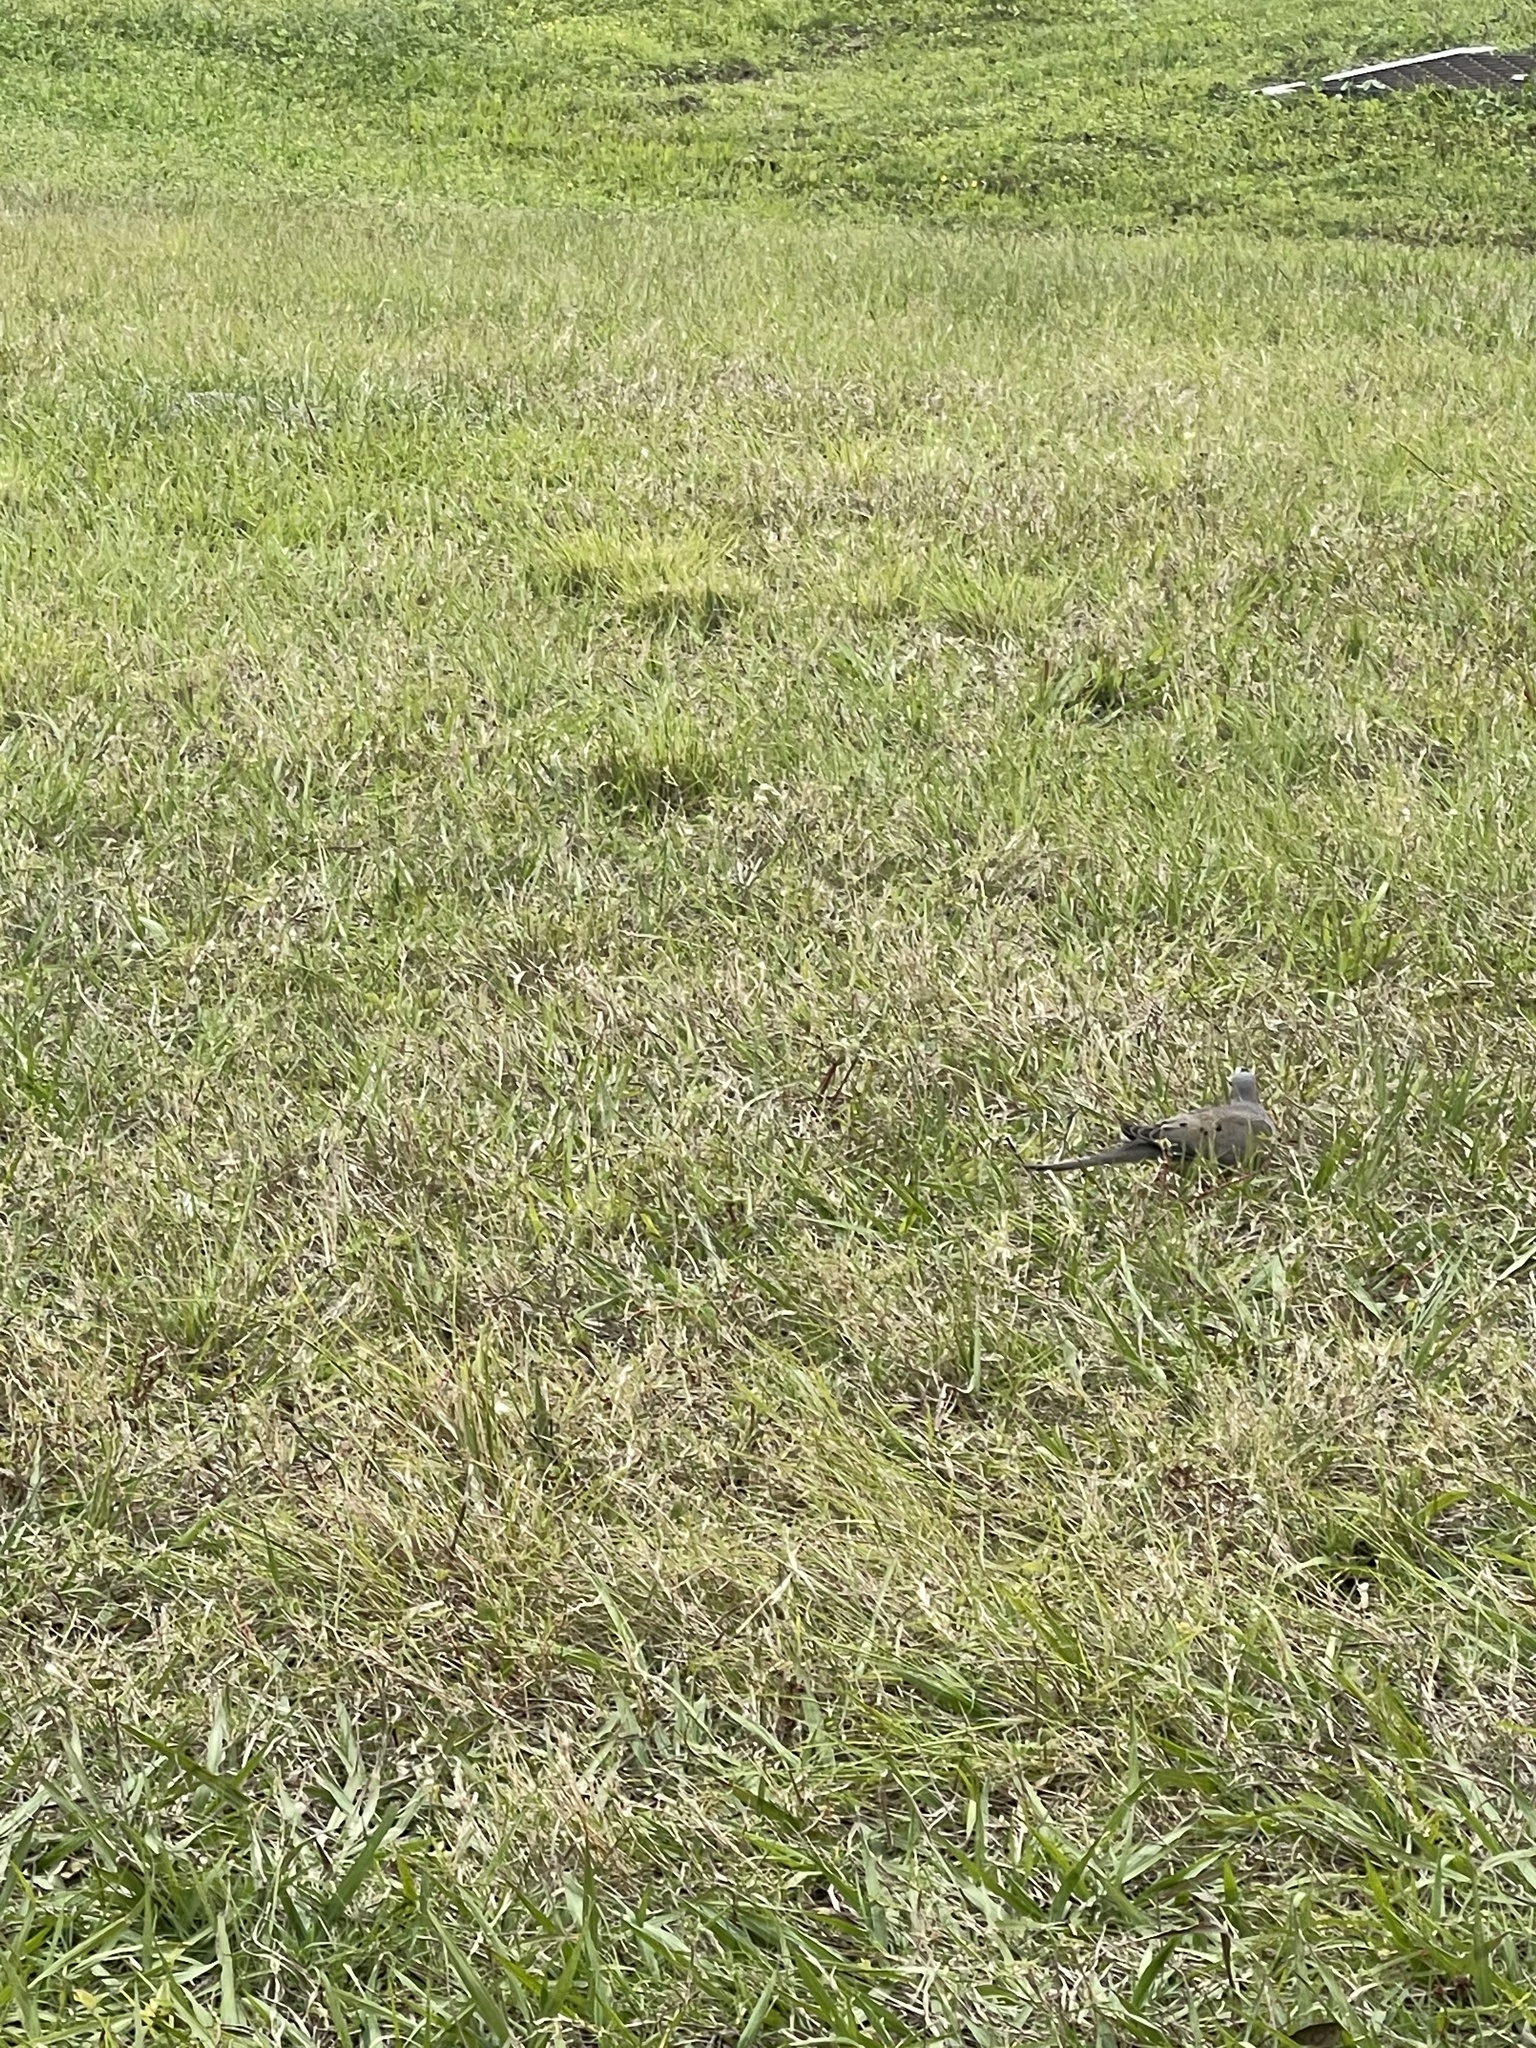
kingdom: Animalia
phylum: Chordata
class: Aves
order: Columbiformes
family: Columbidae
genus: Zenaida
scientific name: Zenaida macroura
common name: Mourning dove
